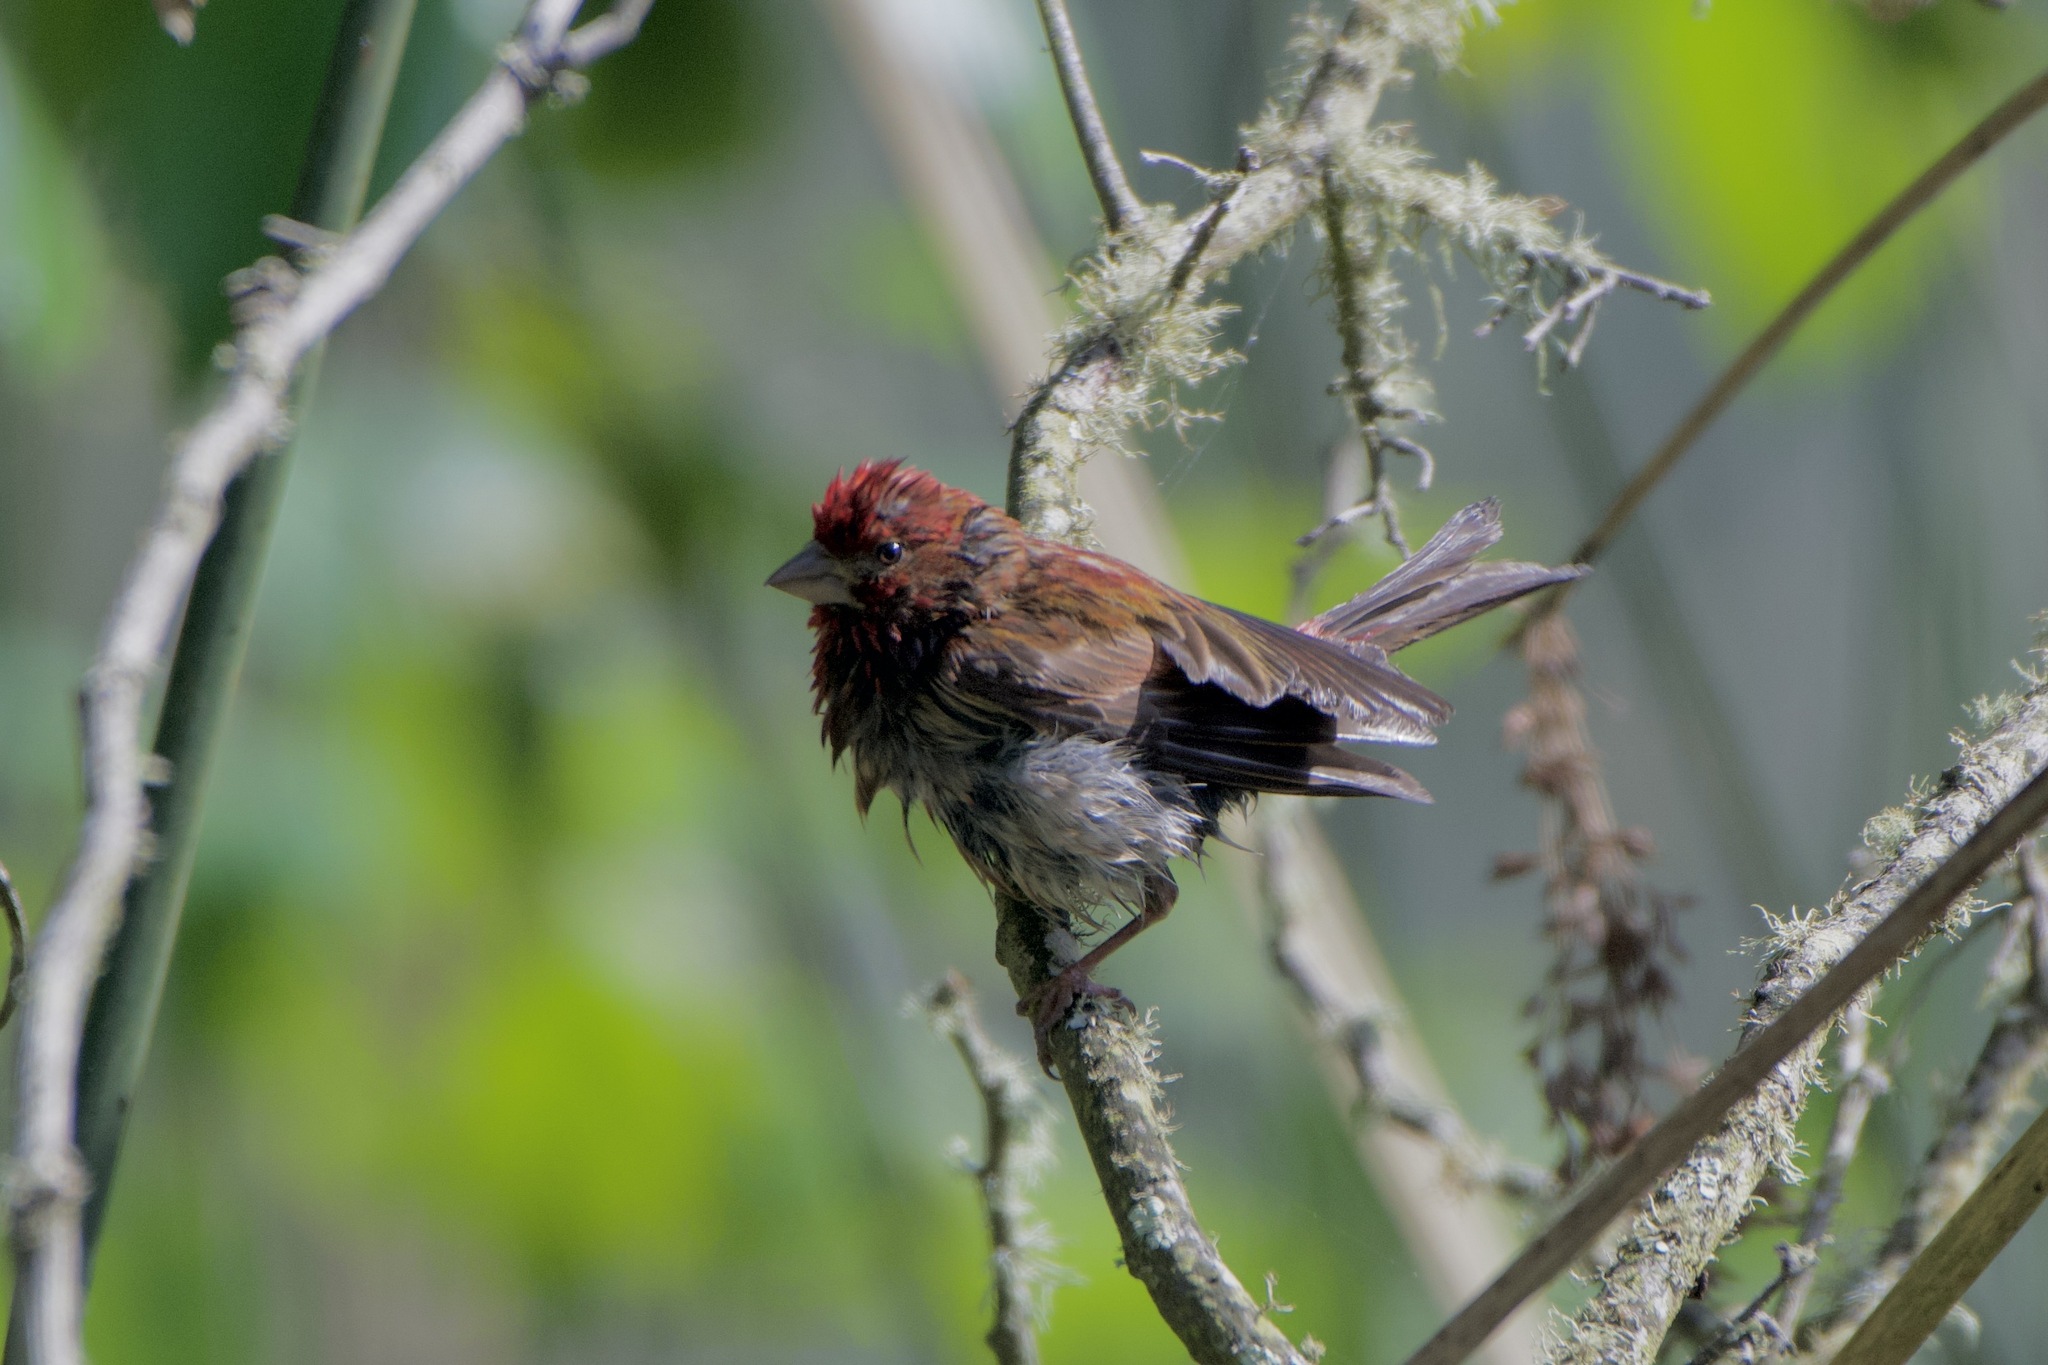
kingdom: Animalia
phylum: Chordata
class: Aves
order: Passeriformes
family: Fringillidae
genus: Haemorhous
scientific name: Haemorhous purpureus
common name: Purple finch
